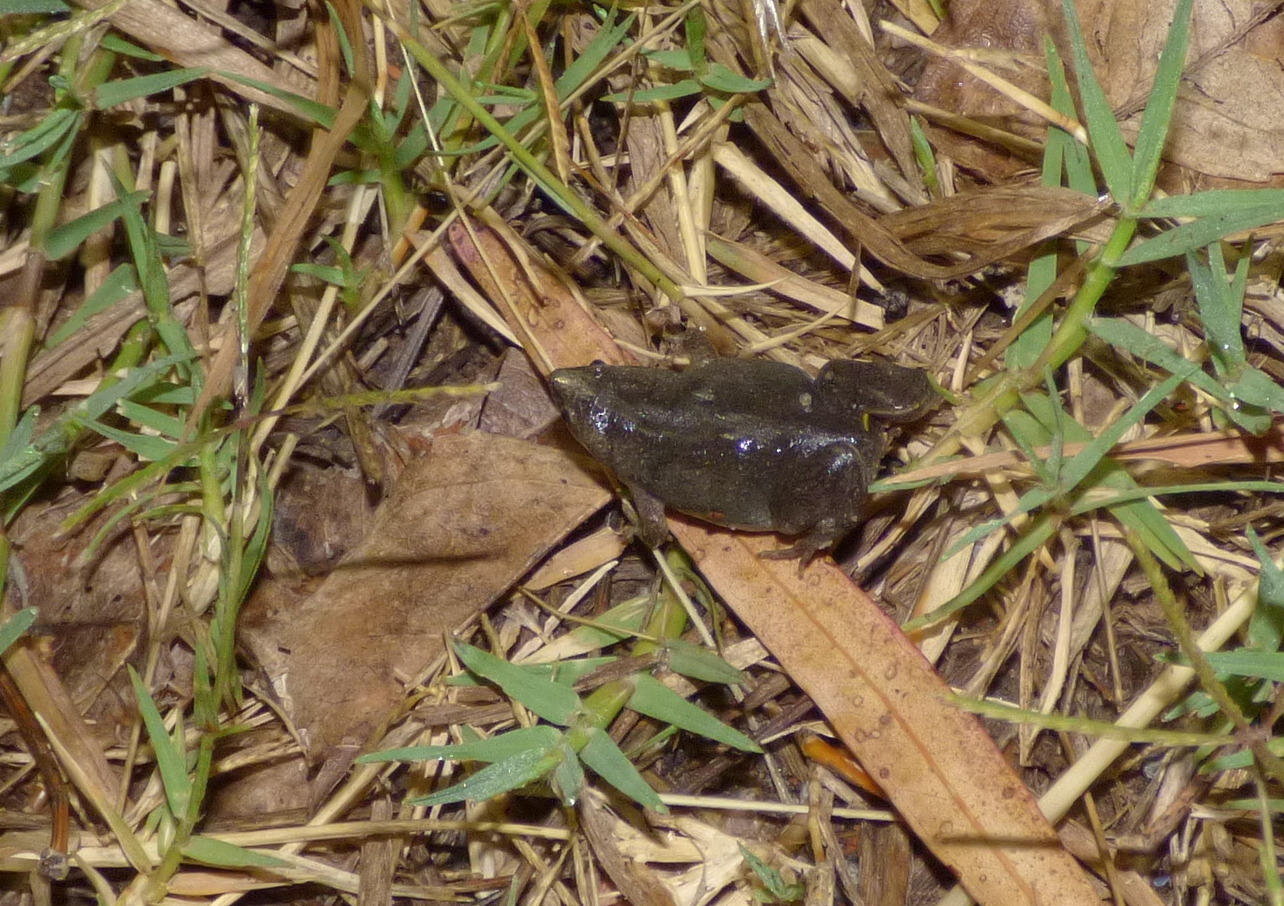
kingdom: Animalia
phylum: Chordata
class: Amphibia
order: Anura
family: Microhylidae
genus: Elachistocleis
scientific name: Elachistocleis bicolor
